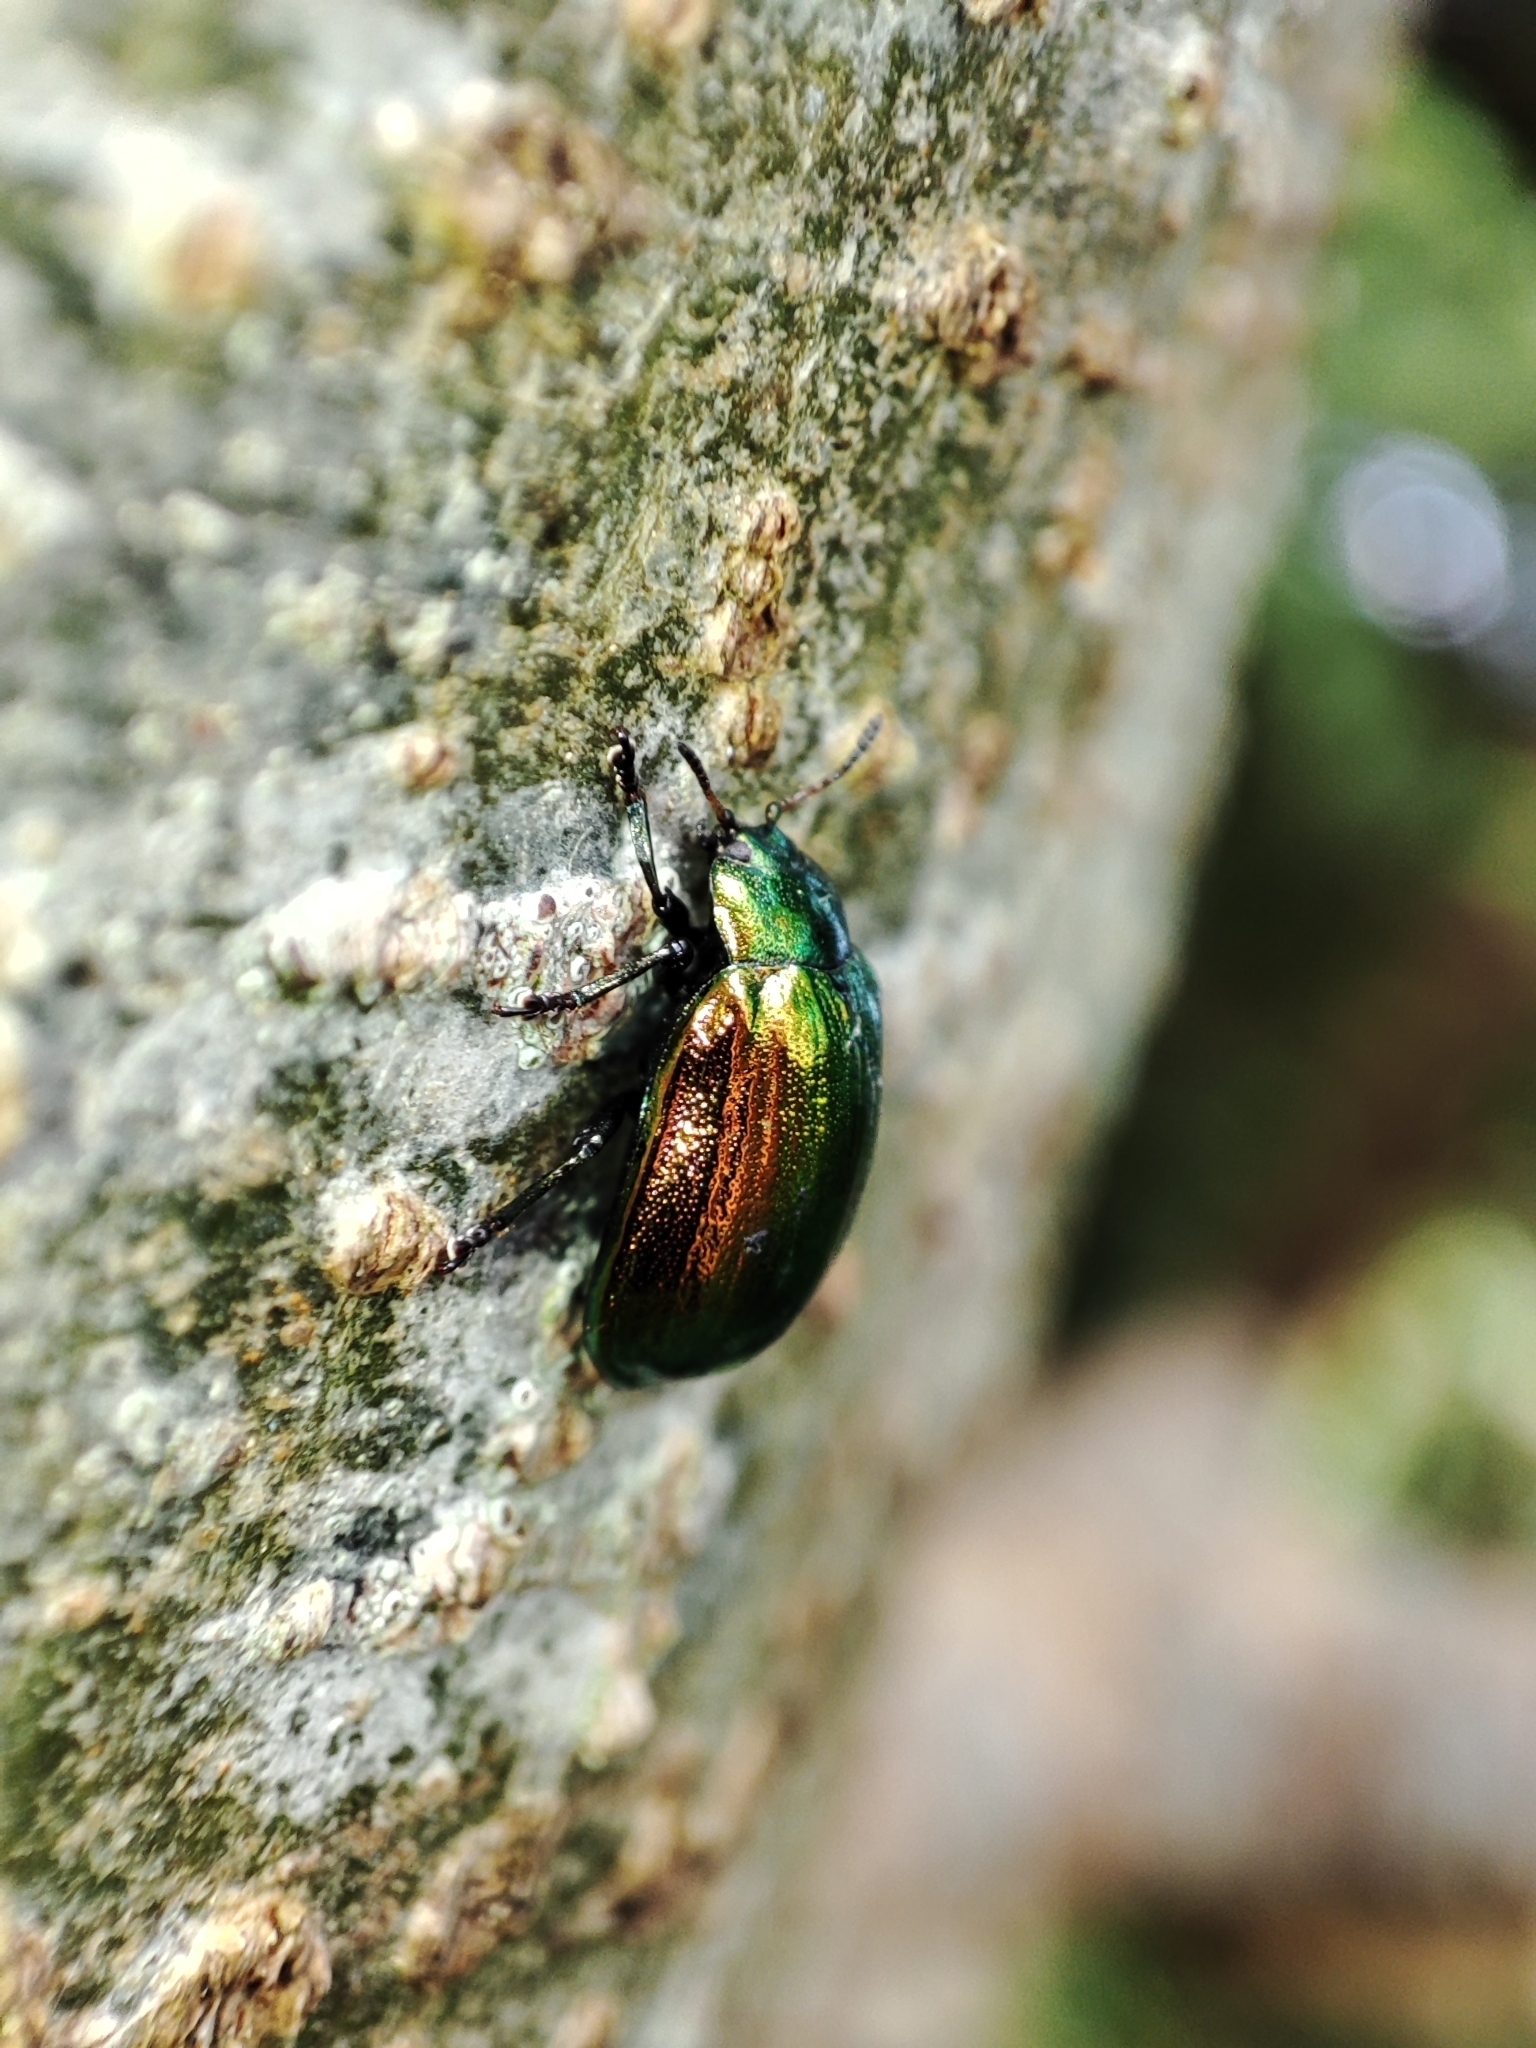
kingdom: Animalia
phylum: Arthropoda
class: Insecta
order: Coleoptera
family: Chrysomelidae
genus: Plagiosterna
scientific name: Plagiosterna aenea
